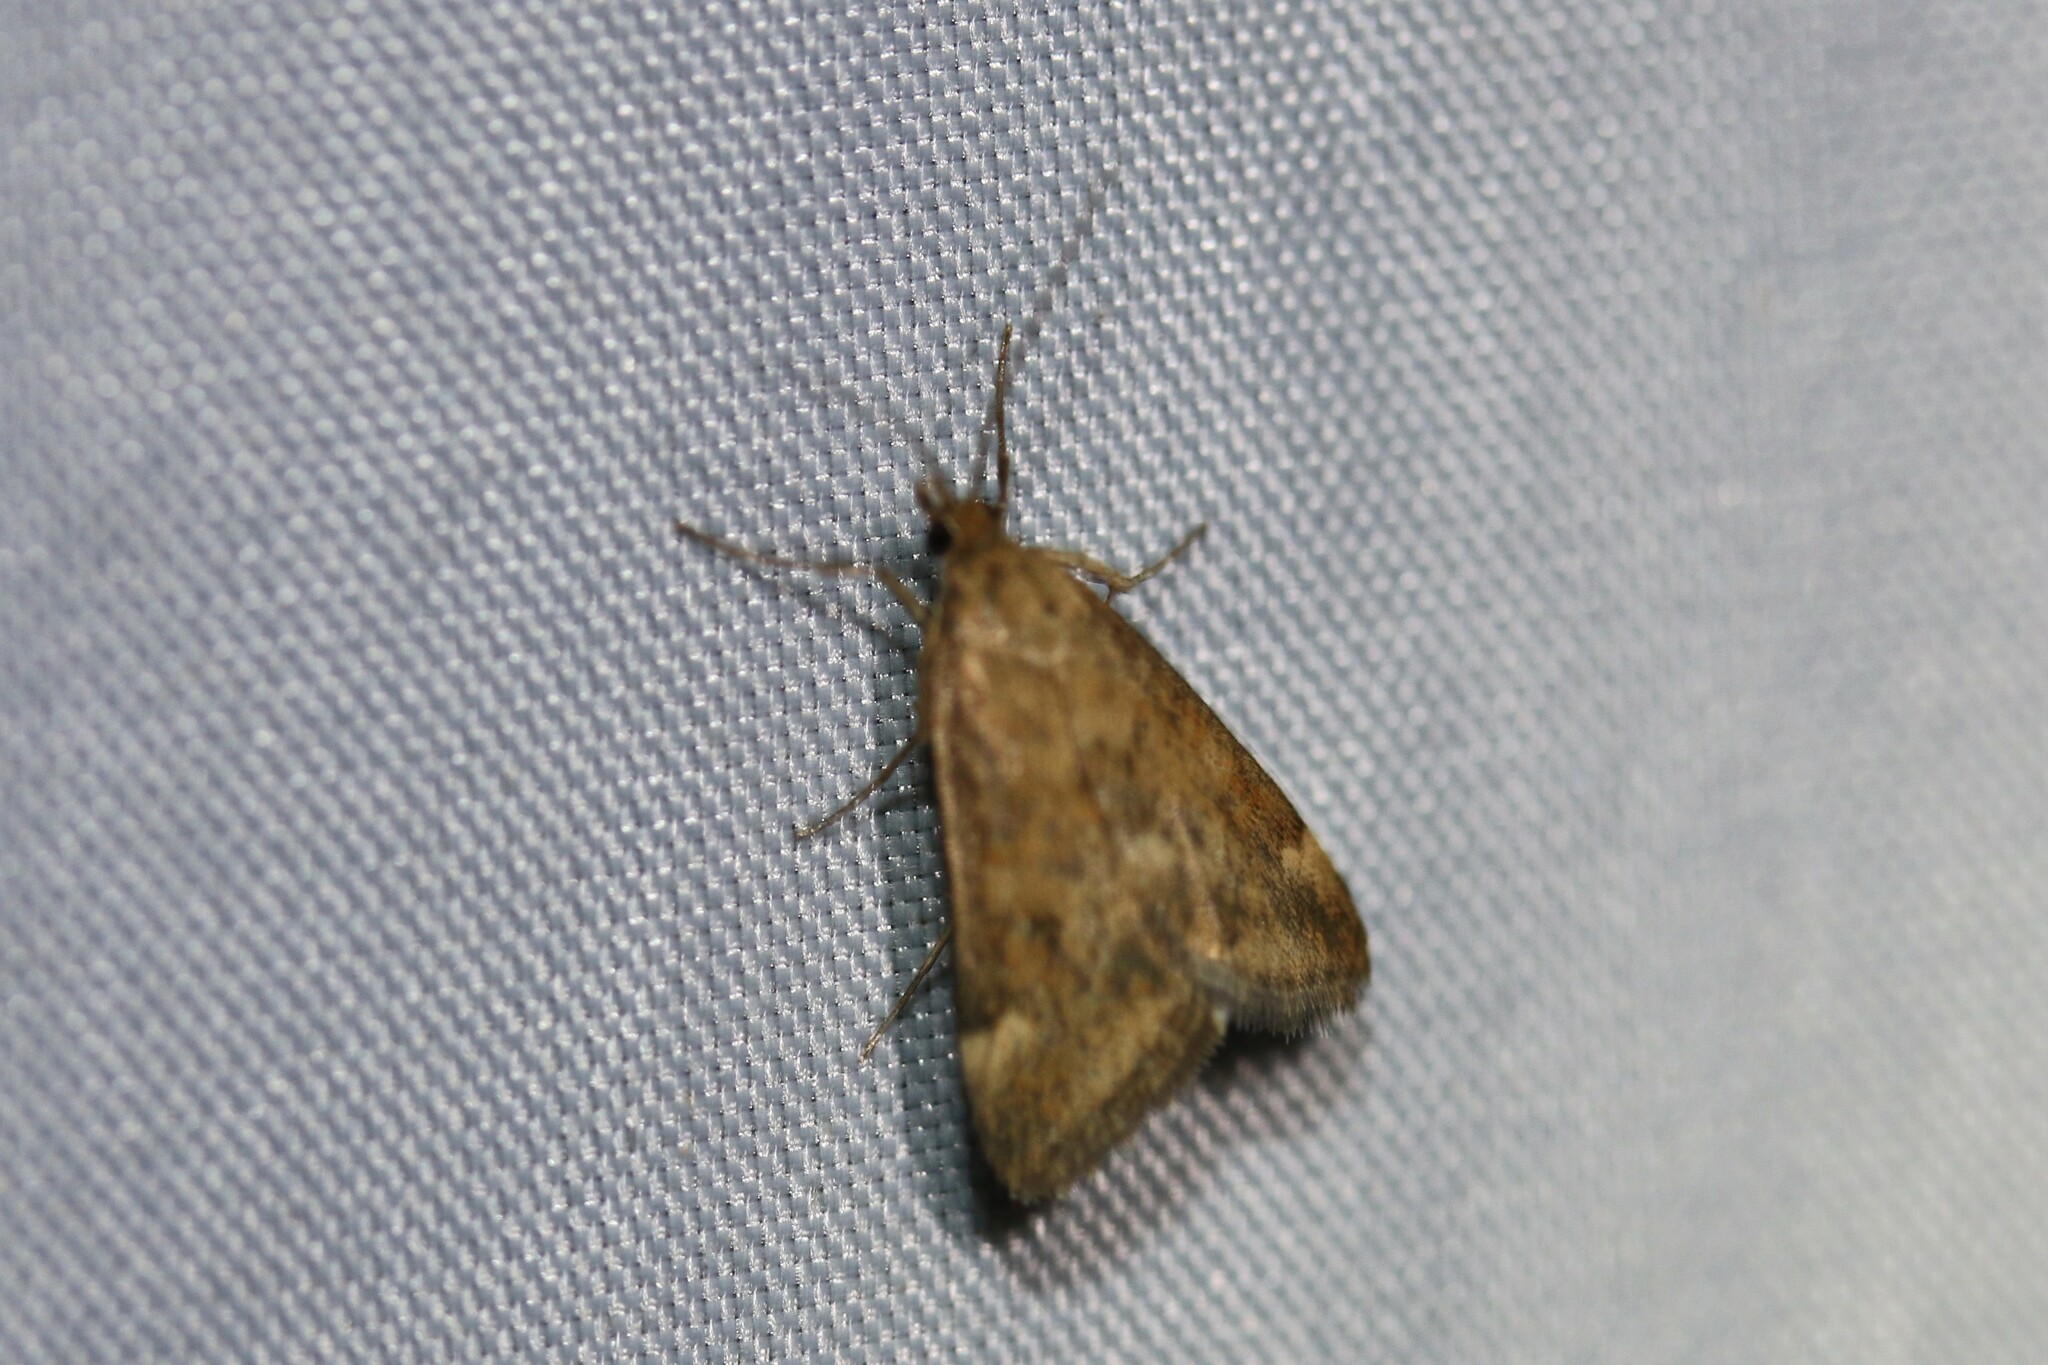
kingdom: Animalia
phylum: Arthropoda
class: Insecta
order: Lepidoptera
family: Crambidae
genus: Pyrausta
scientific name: Pyrausta despicata
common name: Straw-barred pearl
